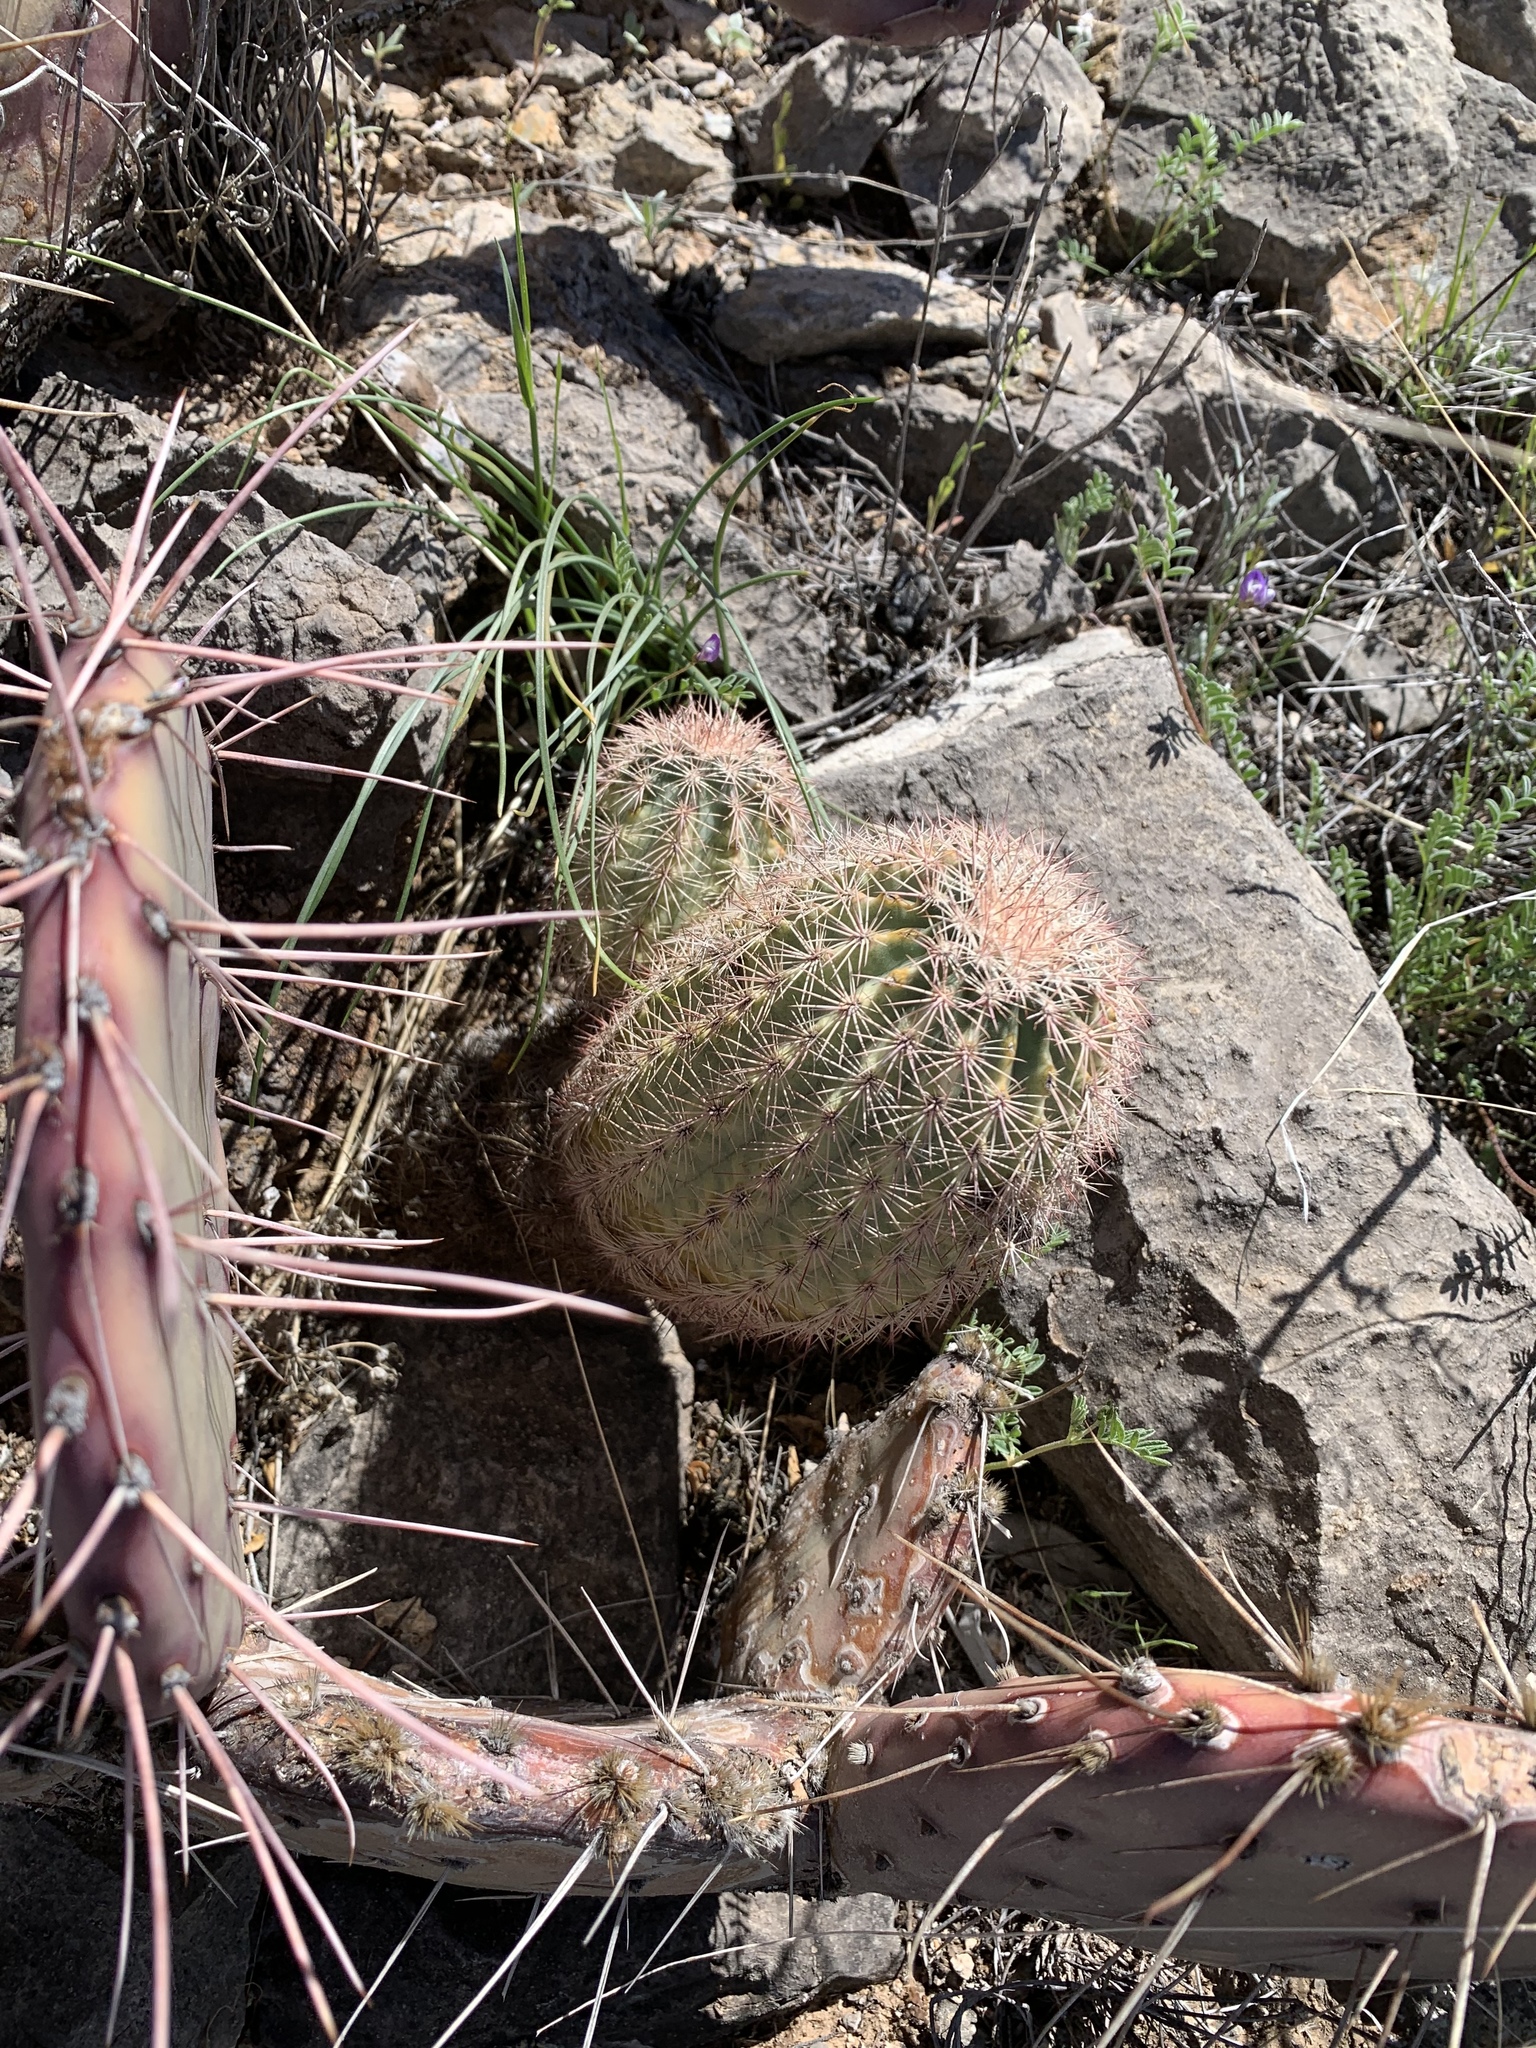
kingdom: Plantae
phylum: Tracheophyta
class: Magnoliopsida
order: Caryophyllales
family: Cactaceae
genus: Echinocereus
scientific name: Echinocereus dasyacanthus
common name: Spiny hedgehog cactus
